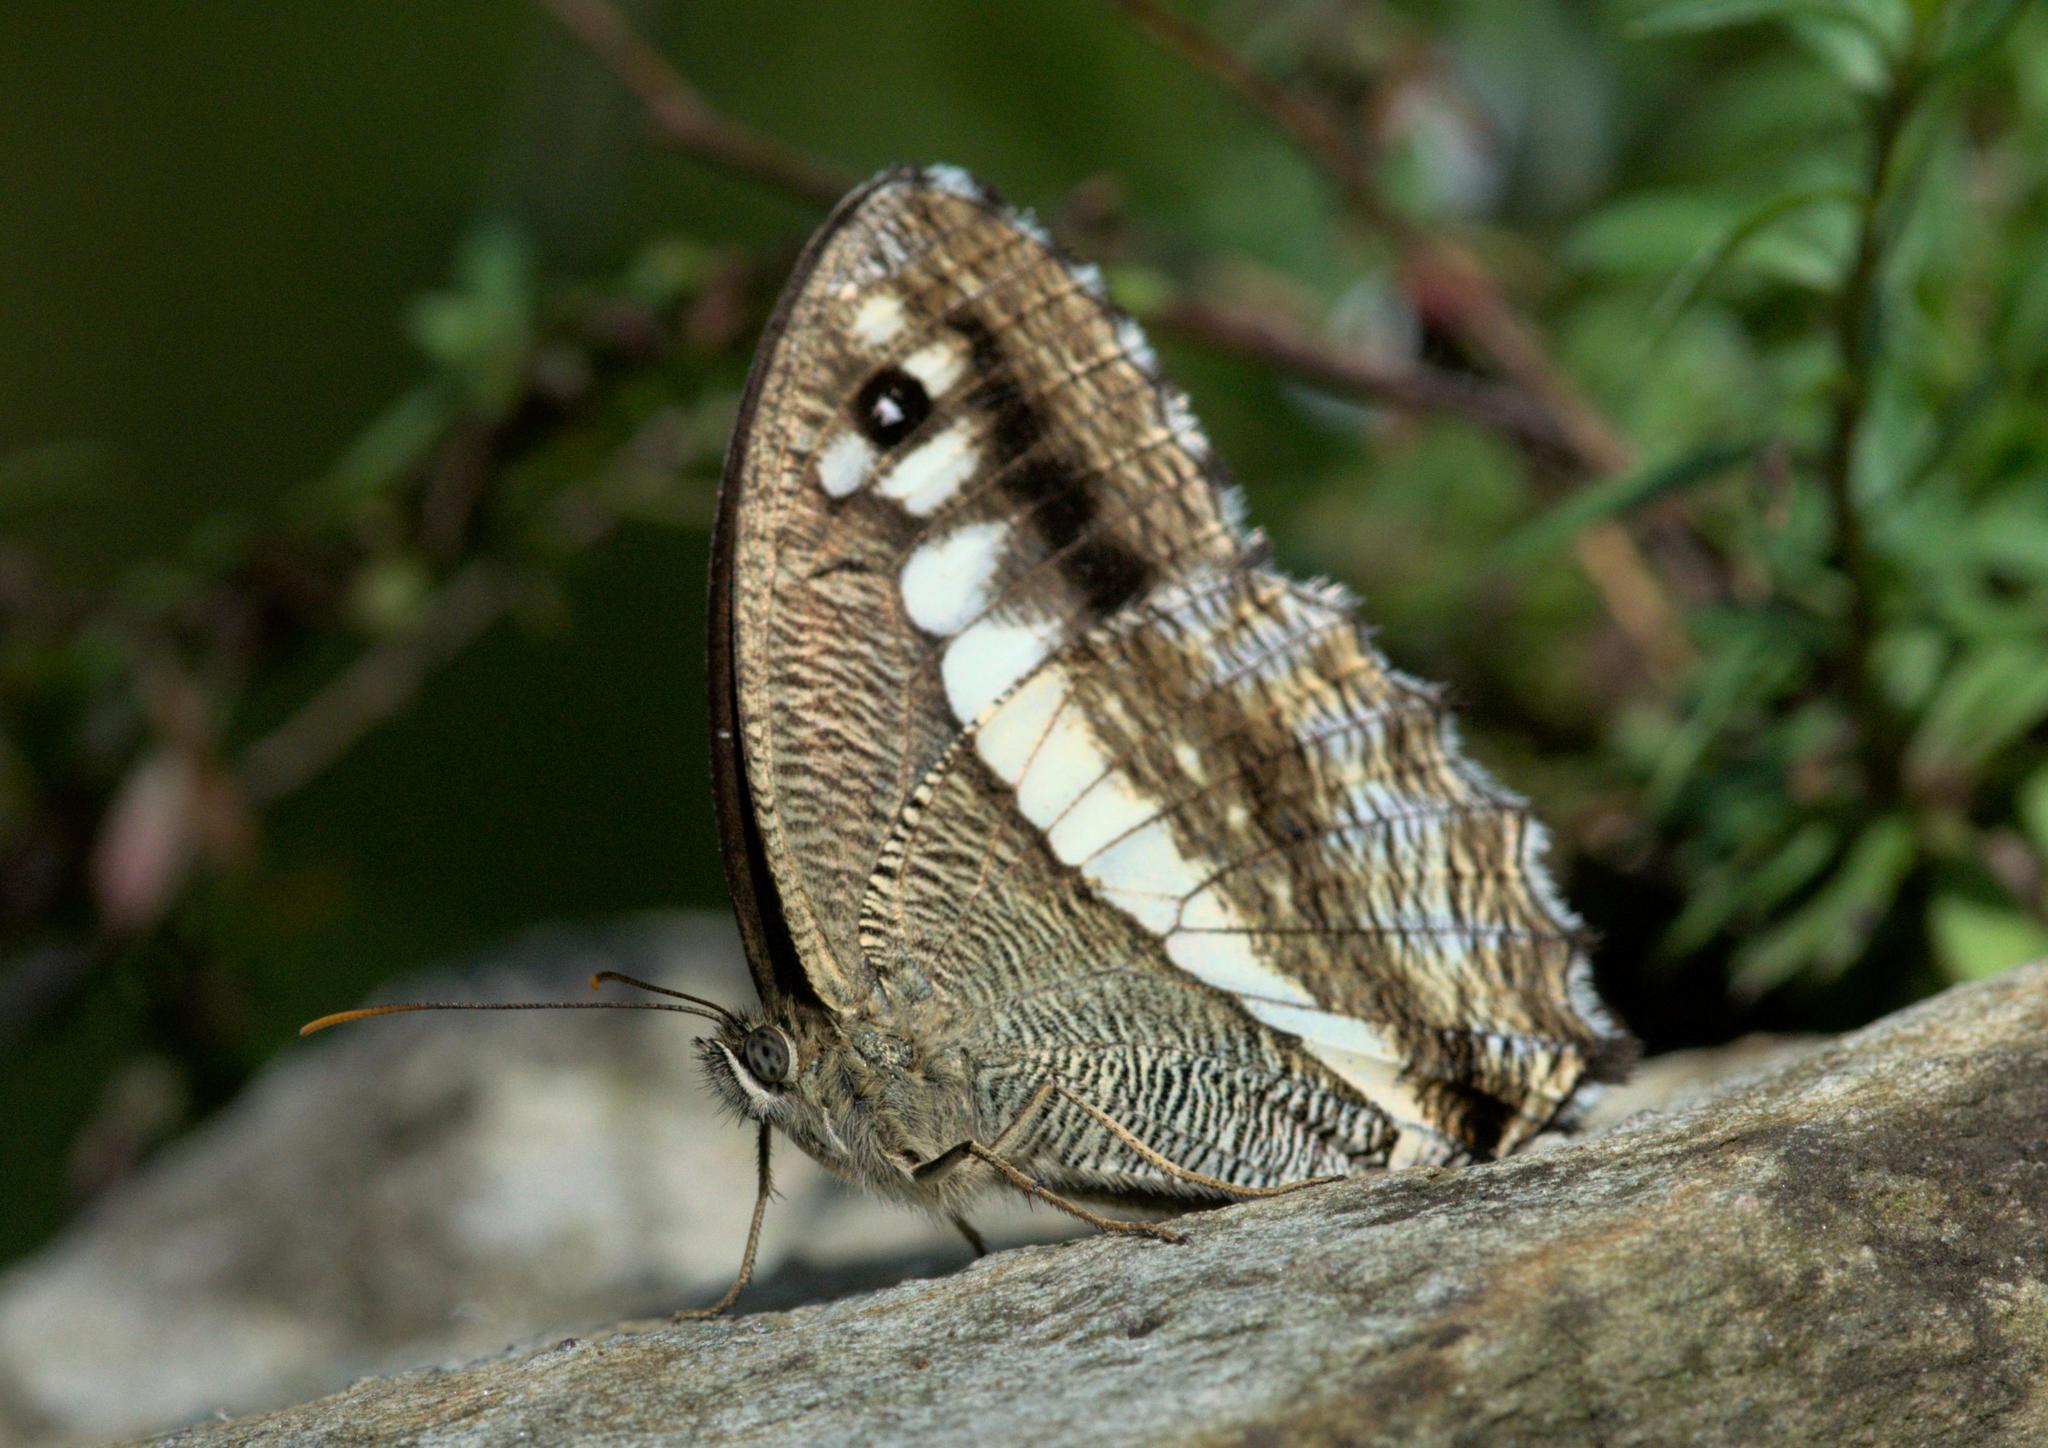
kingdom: Animalia
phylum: Arthropoda
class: Insecta
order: Lepidoptera
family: Nymphalidae
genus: Satyrus
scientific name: Satyrus
